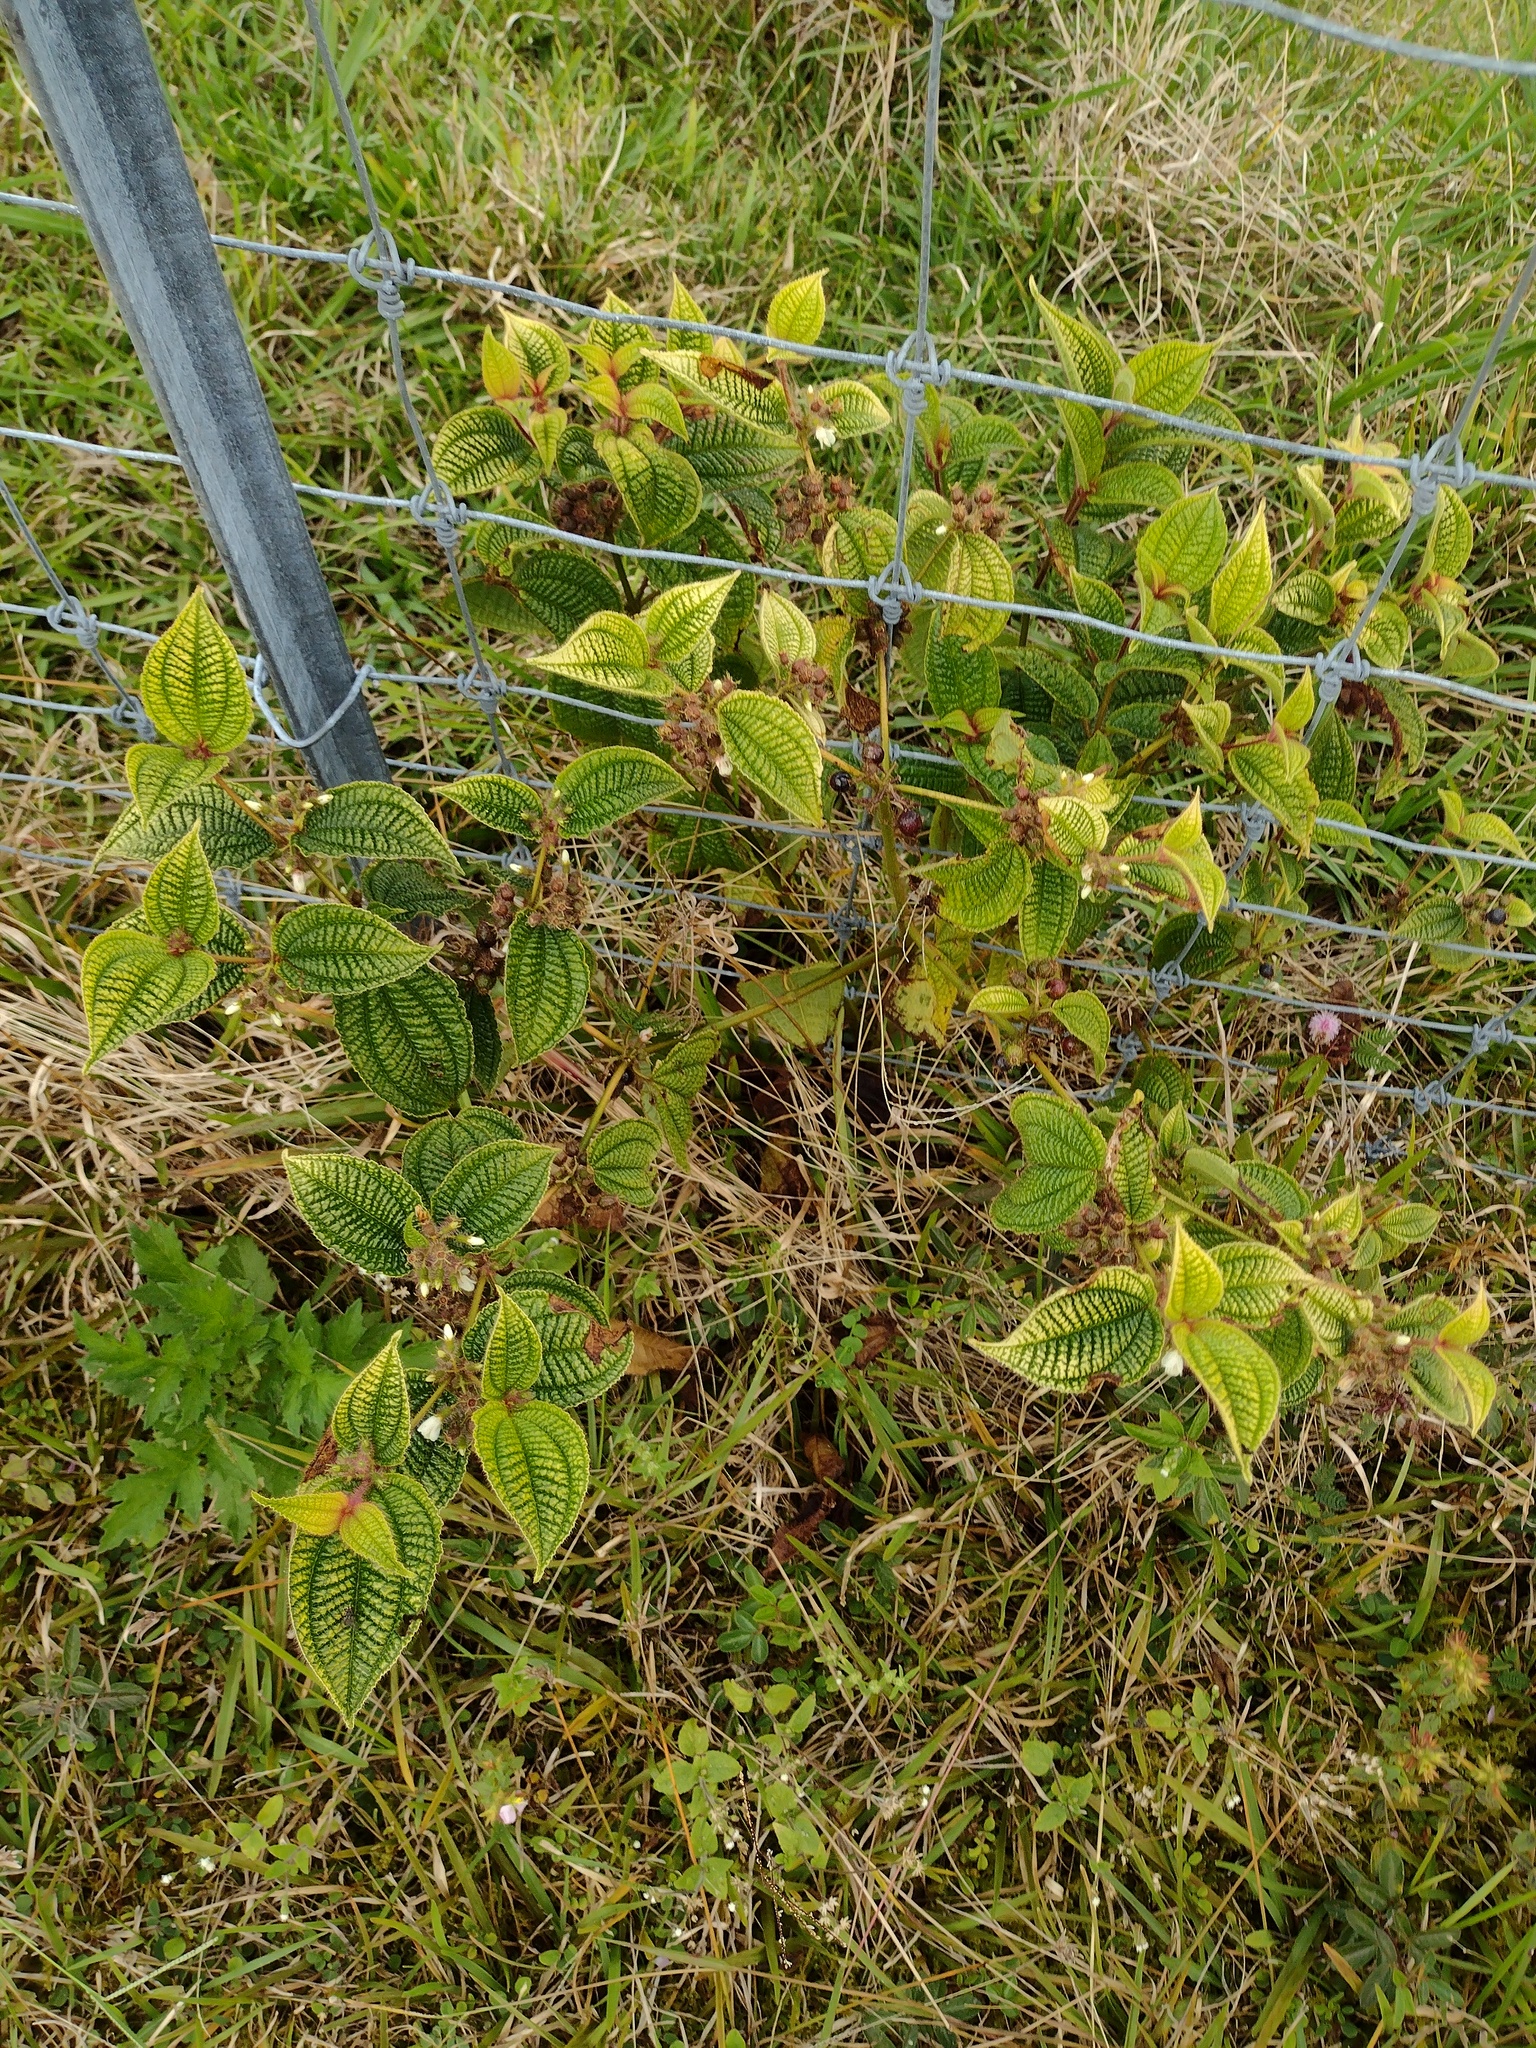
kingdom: Plantae
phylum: Tracheophyta
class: Magnoliopsida
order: Myrtales
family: Melastomataceae
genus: Miconia
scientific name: Miconia crenata
